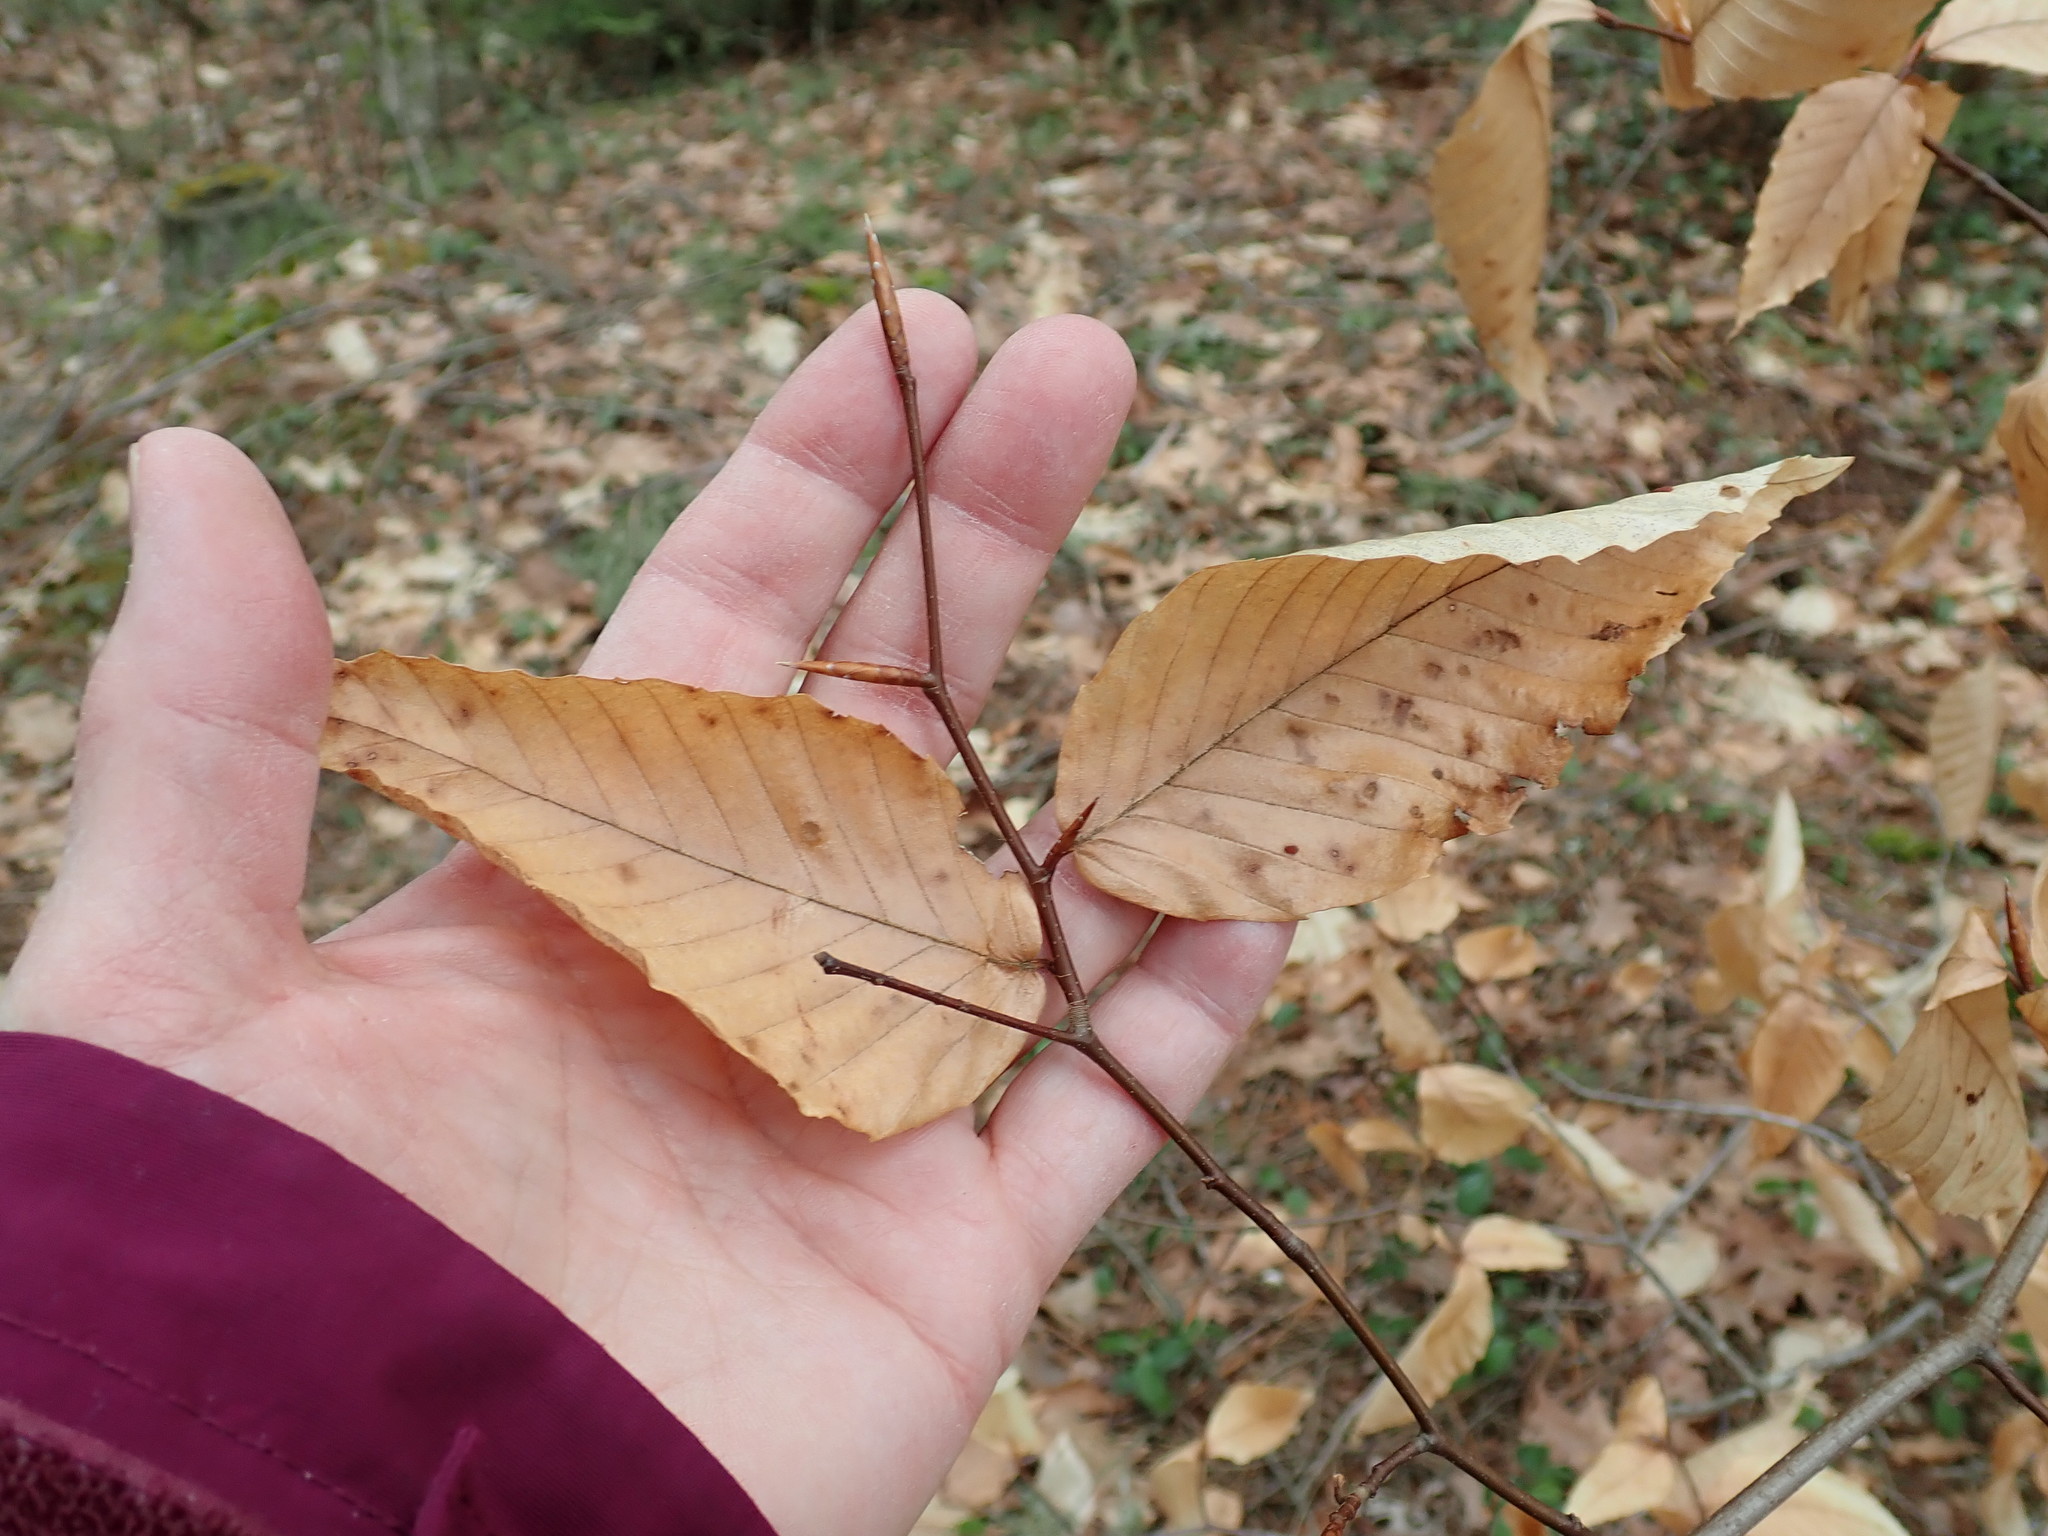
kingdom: Plantae
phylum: Tracheophyta
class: Magnoliopsida
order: Fagales
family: Fagaceae
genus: Fagus
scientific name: Fagus grandifolia
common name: American beech
